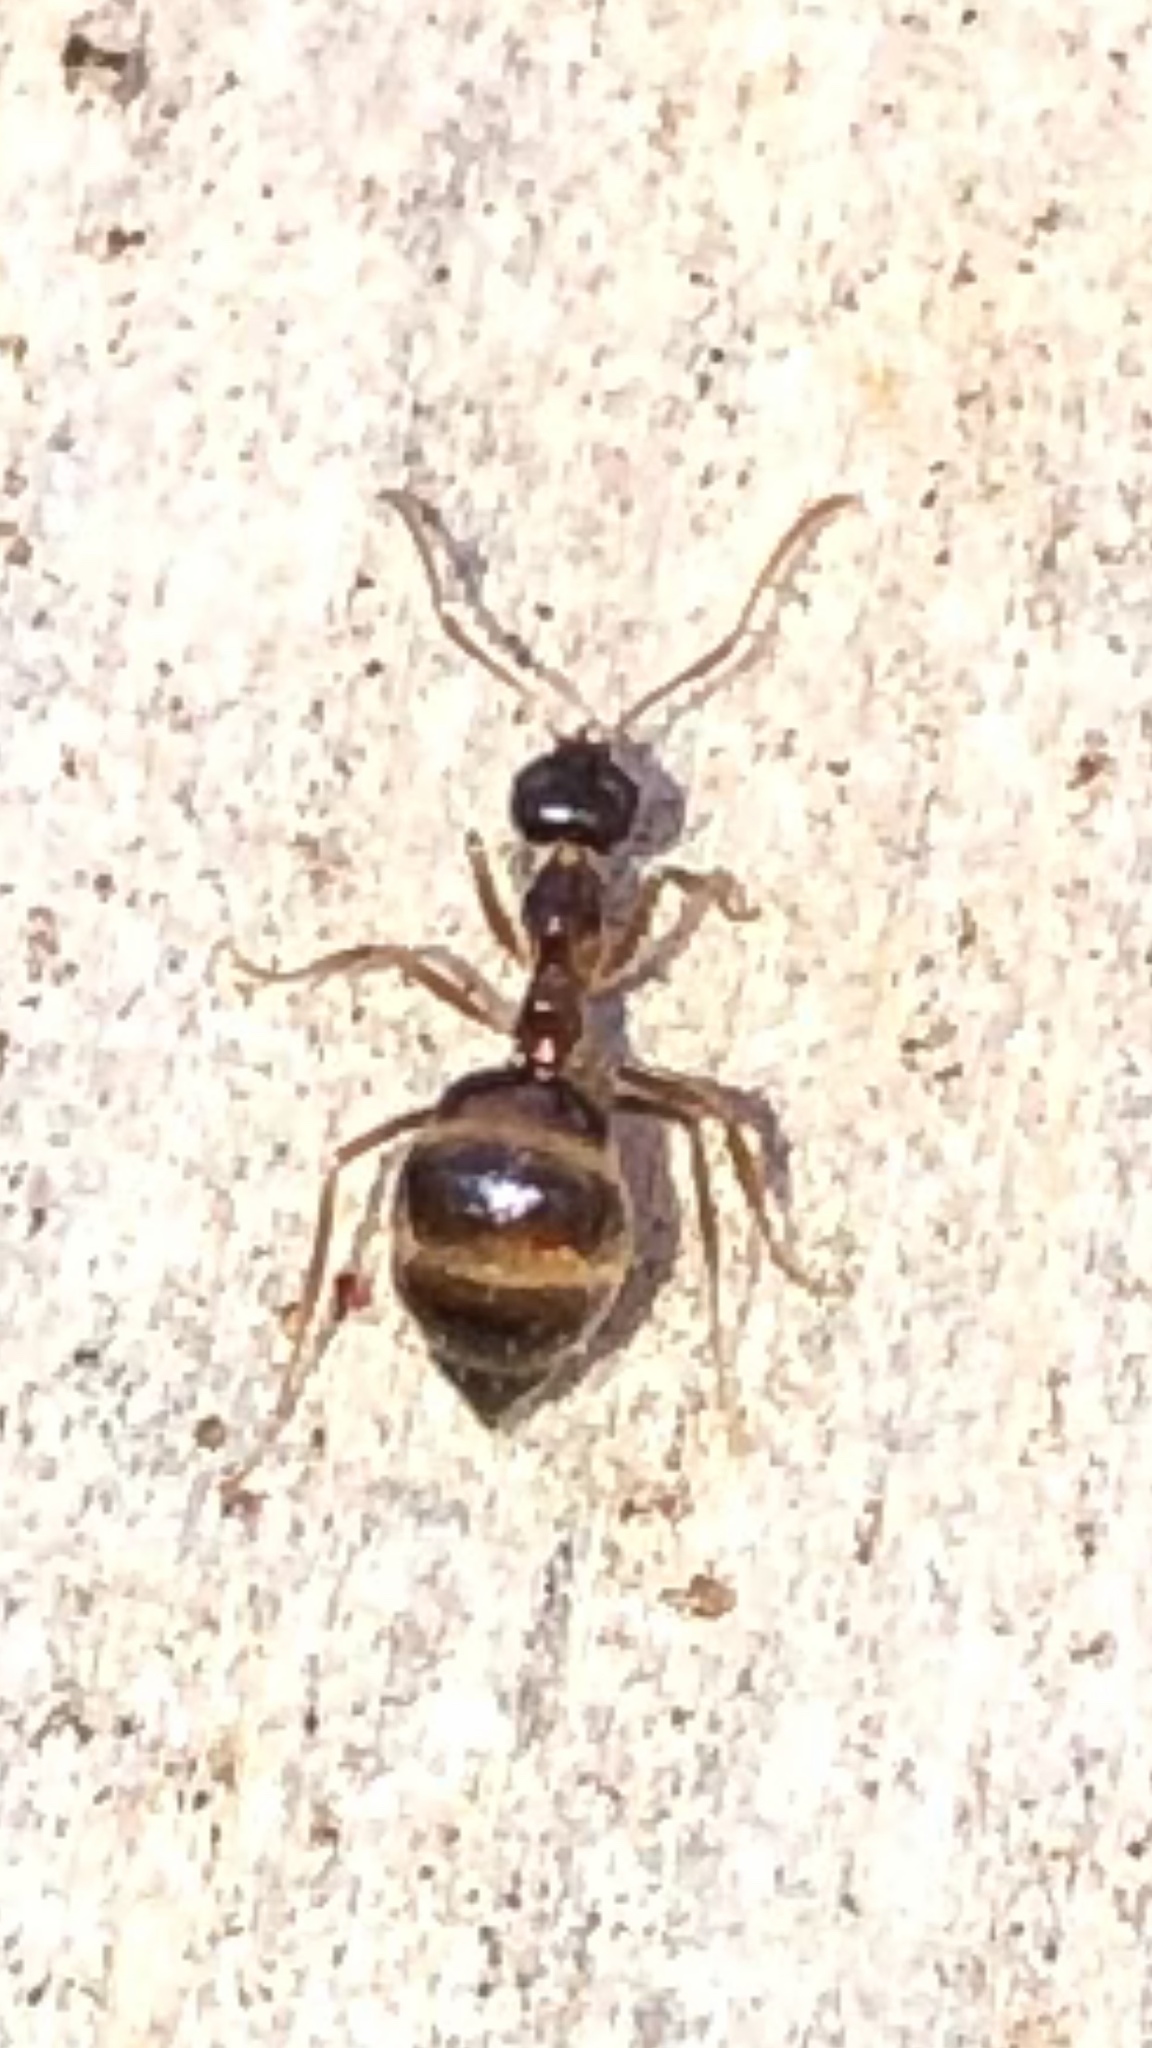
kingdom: Animalia
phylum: Arthropoda
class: Insecta
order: Hymenoptera
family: Formicidae
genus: Prenolepis
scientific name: Prenolepis imparis
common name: Small honey ant
